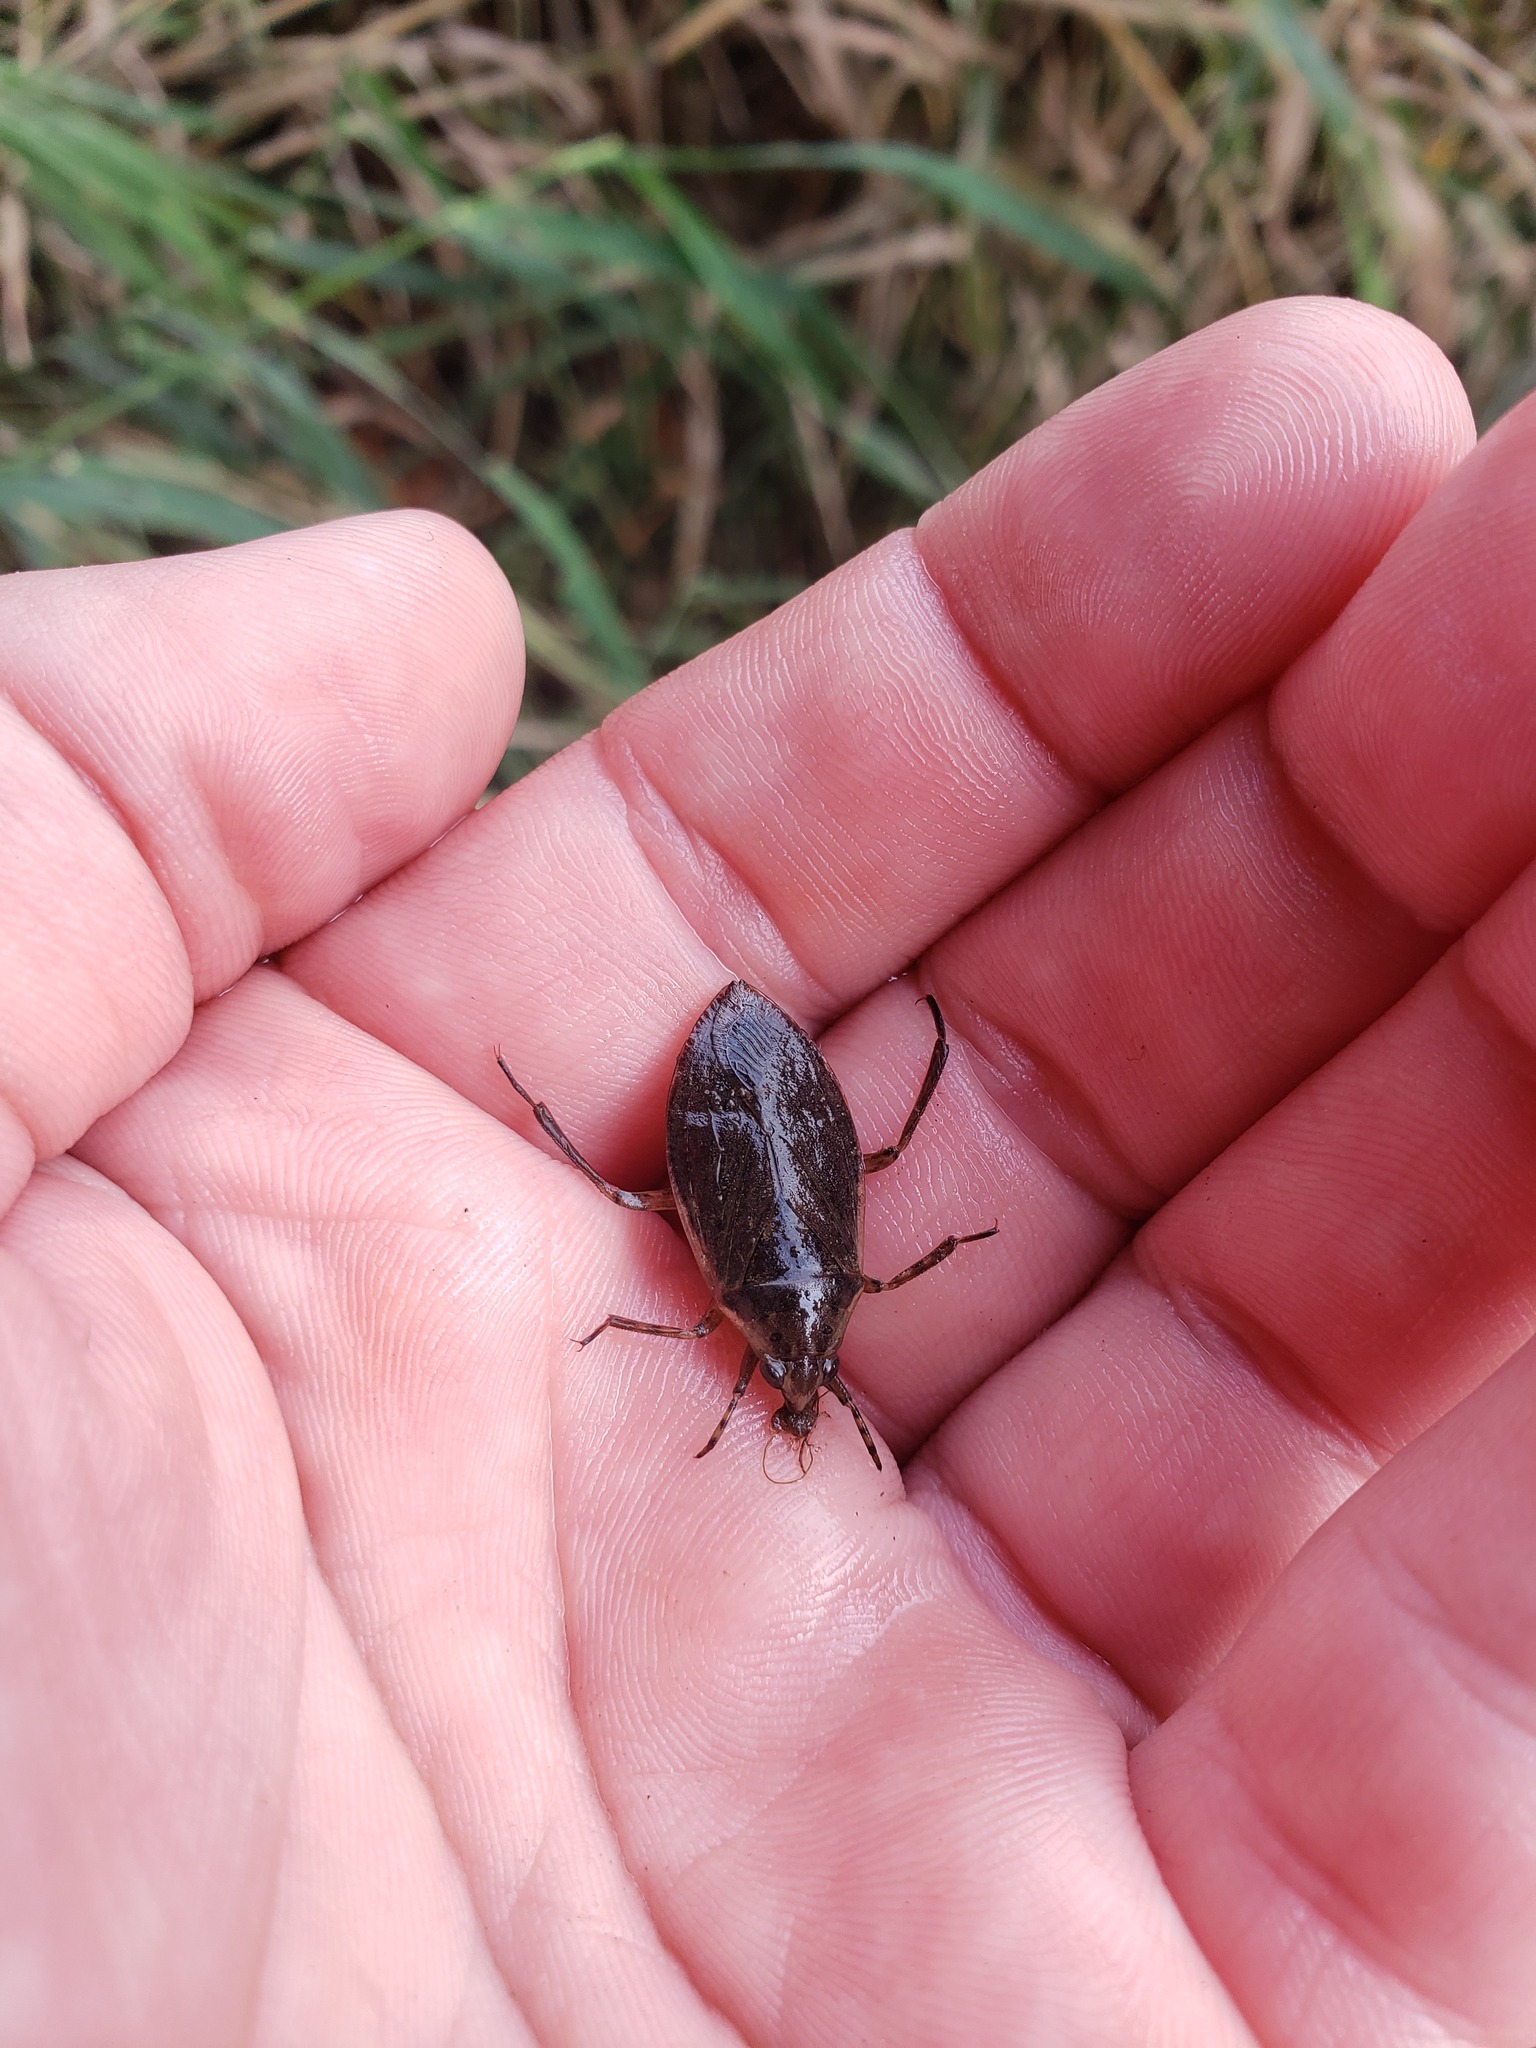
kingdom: Animalia
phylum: Arthropoda
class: Insecta
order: Hemiptera
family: Belostomatidae
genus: Belostoma
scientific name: Belostoma flumineum
